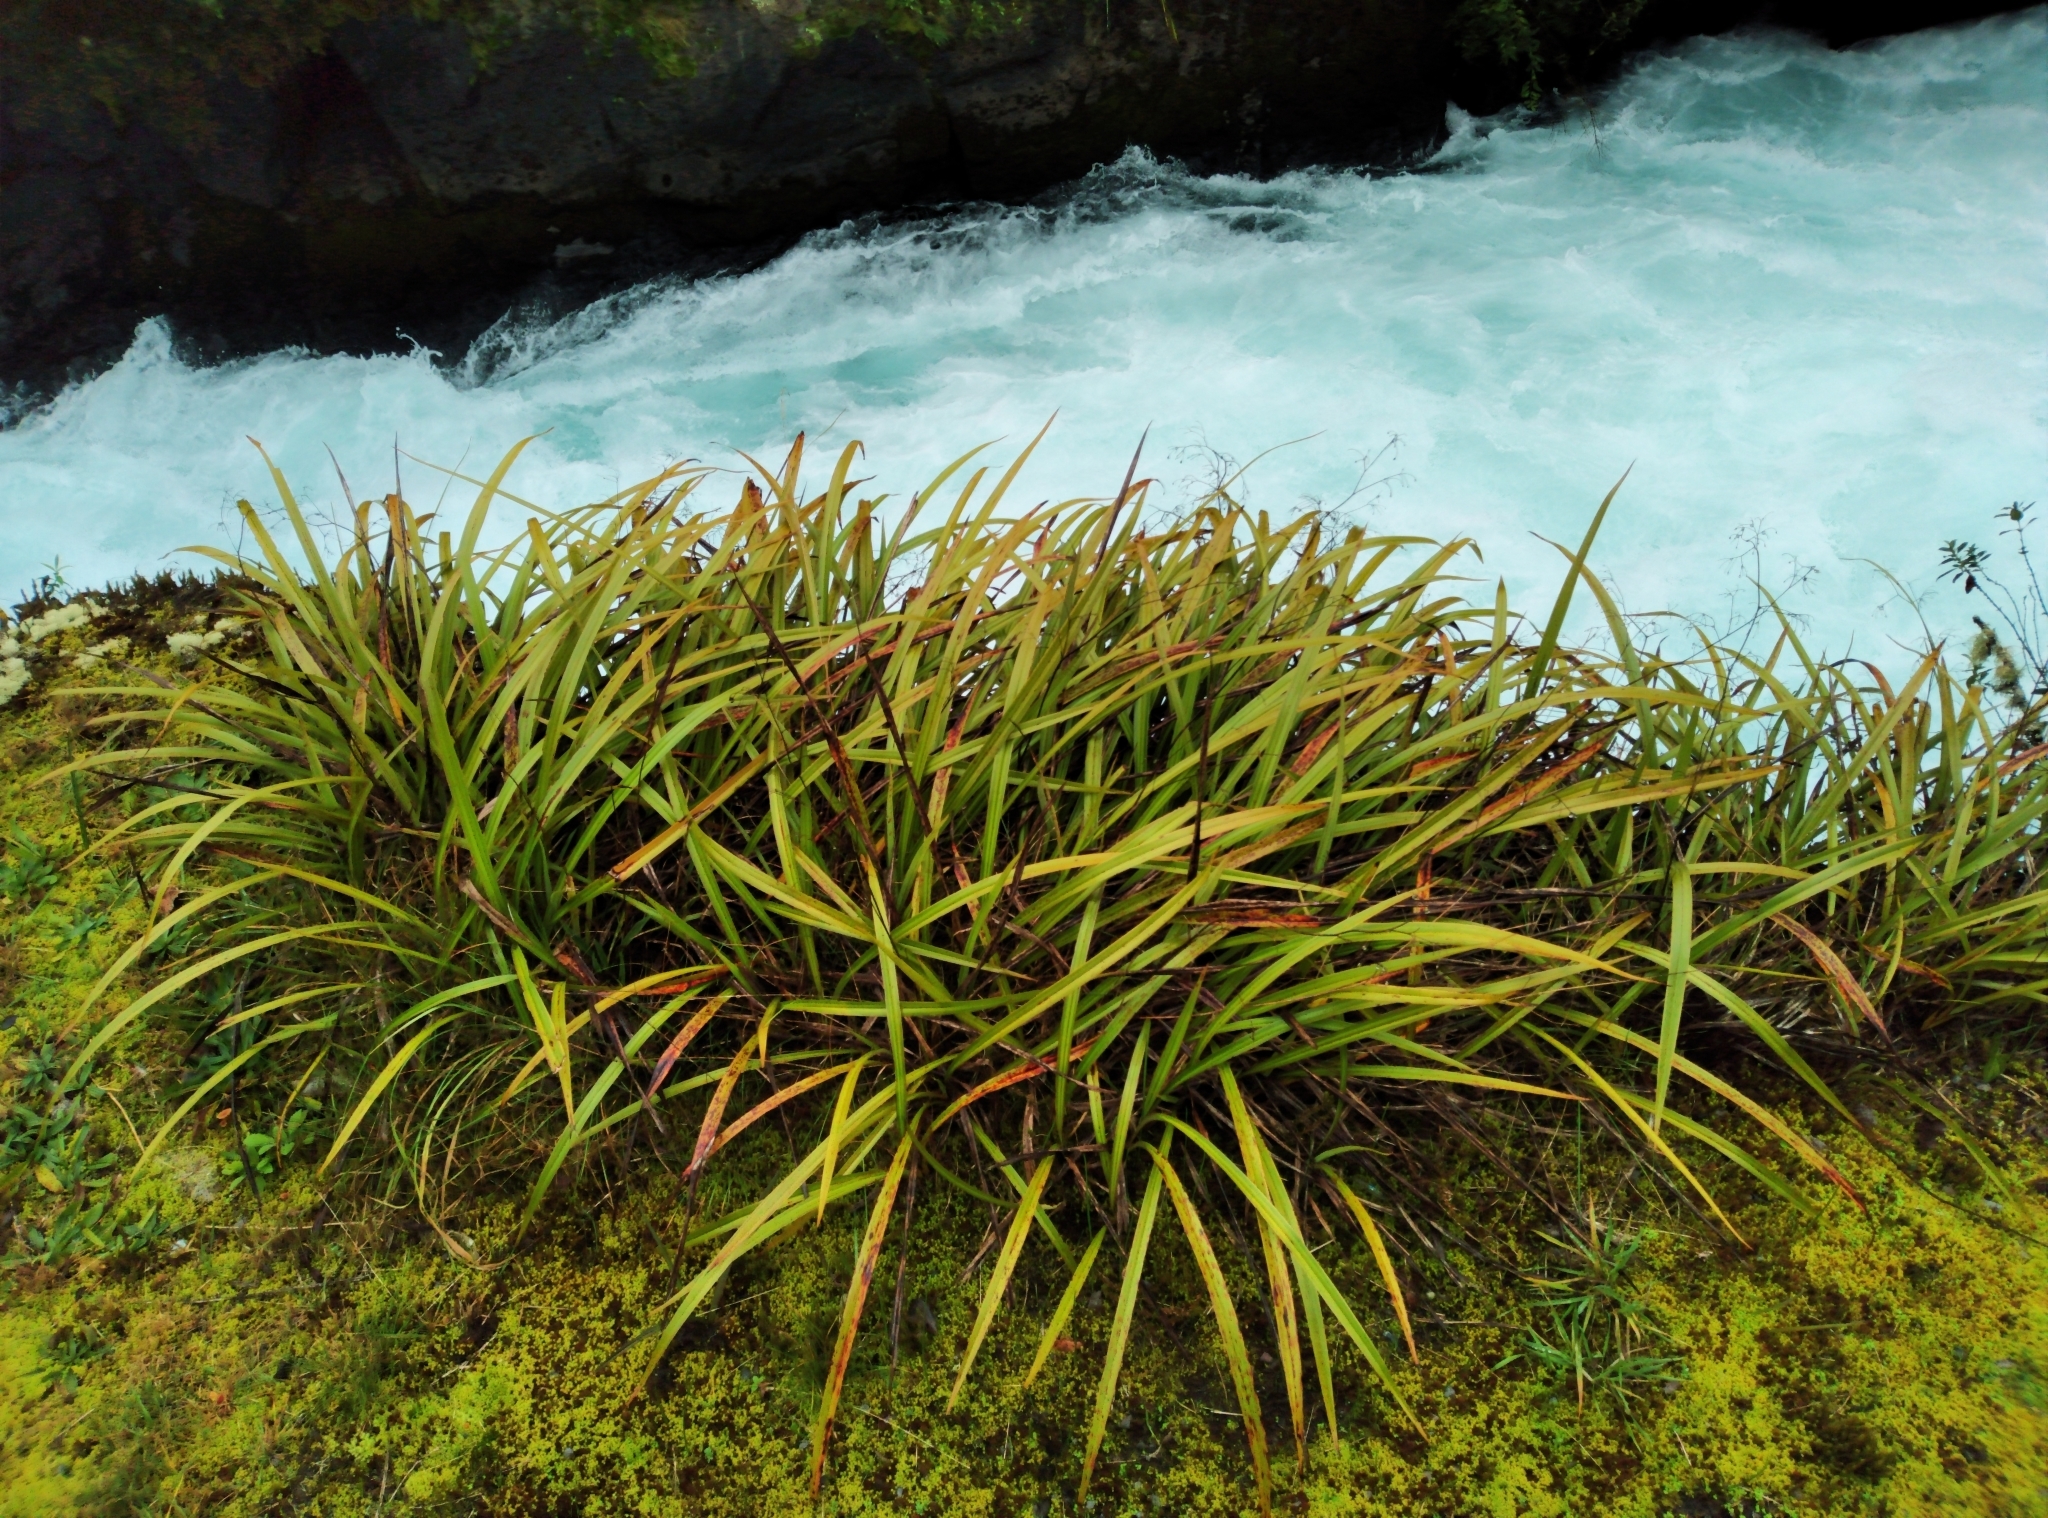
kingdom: Plantae
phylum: Tracheophyta
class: Liliopsida
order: Asparagales
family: Asphodelaceae
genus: Dianella
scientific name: Dianella nigra
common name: New zealand-blueberry
